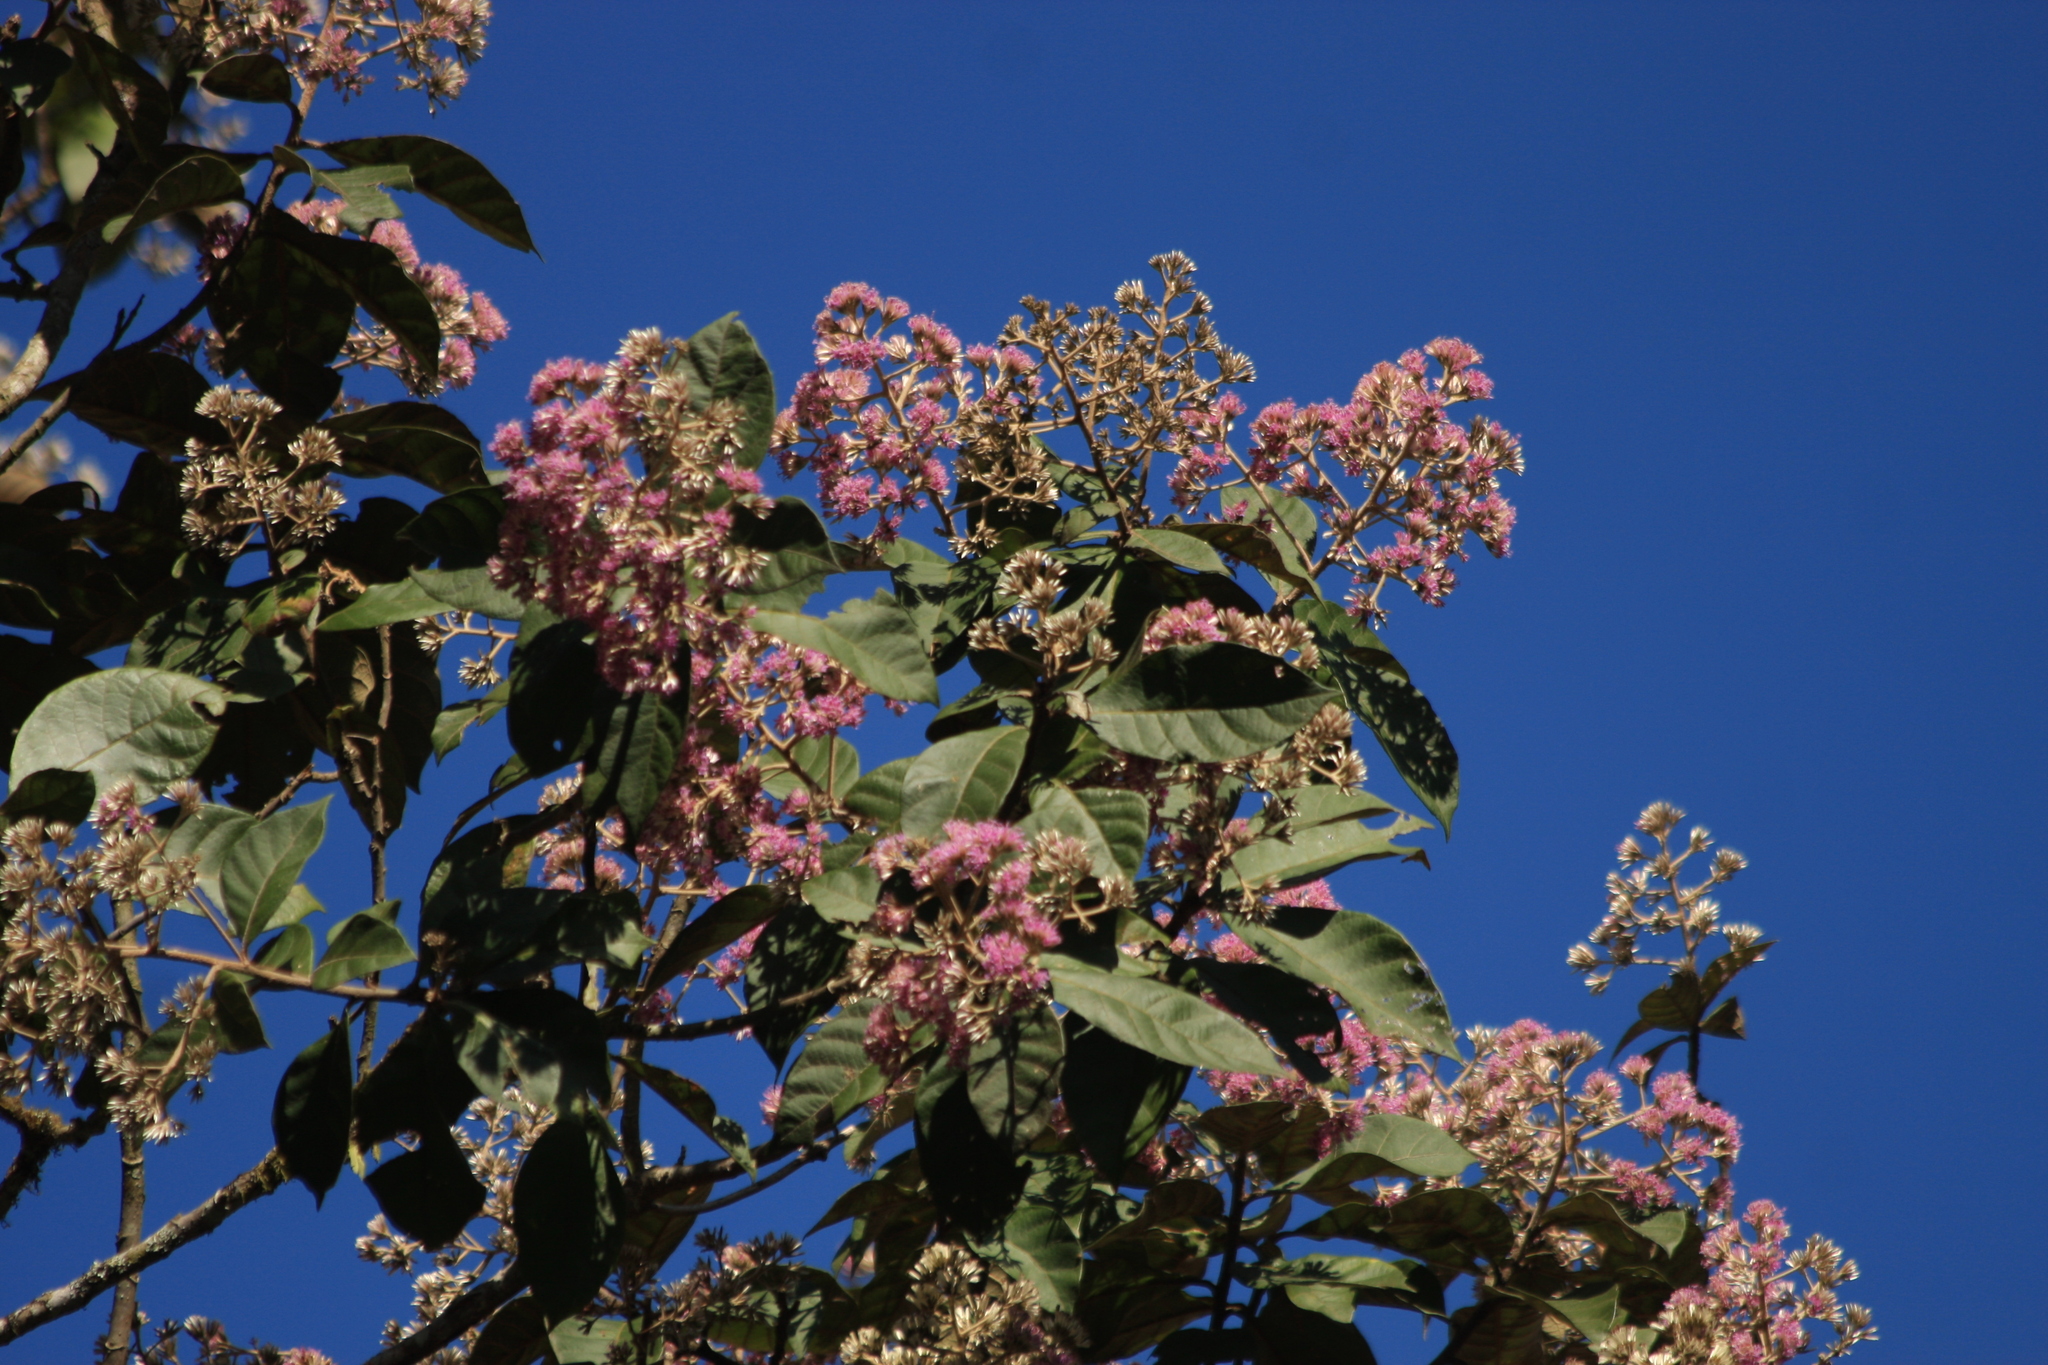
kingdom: Plantae
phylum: Tracheophyta
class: Magnoliopsida
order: Asterales
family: Asteraceae
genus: Strobocalyx
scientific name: Strobocalyx arborea
